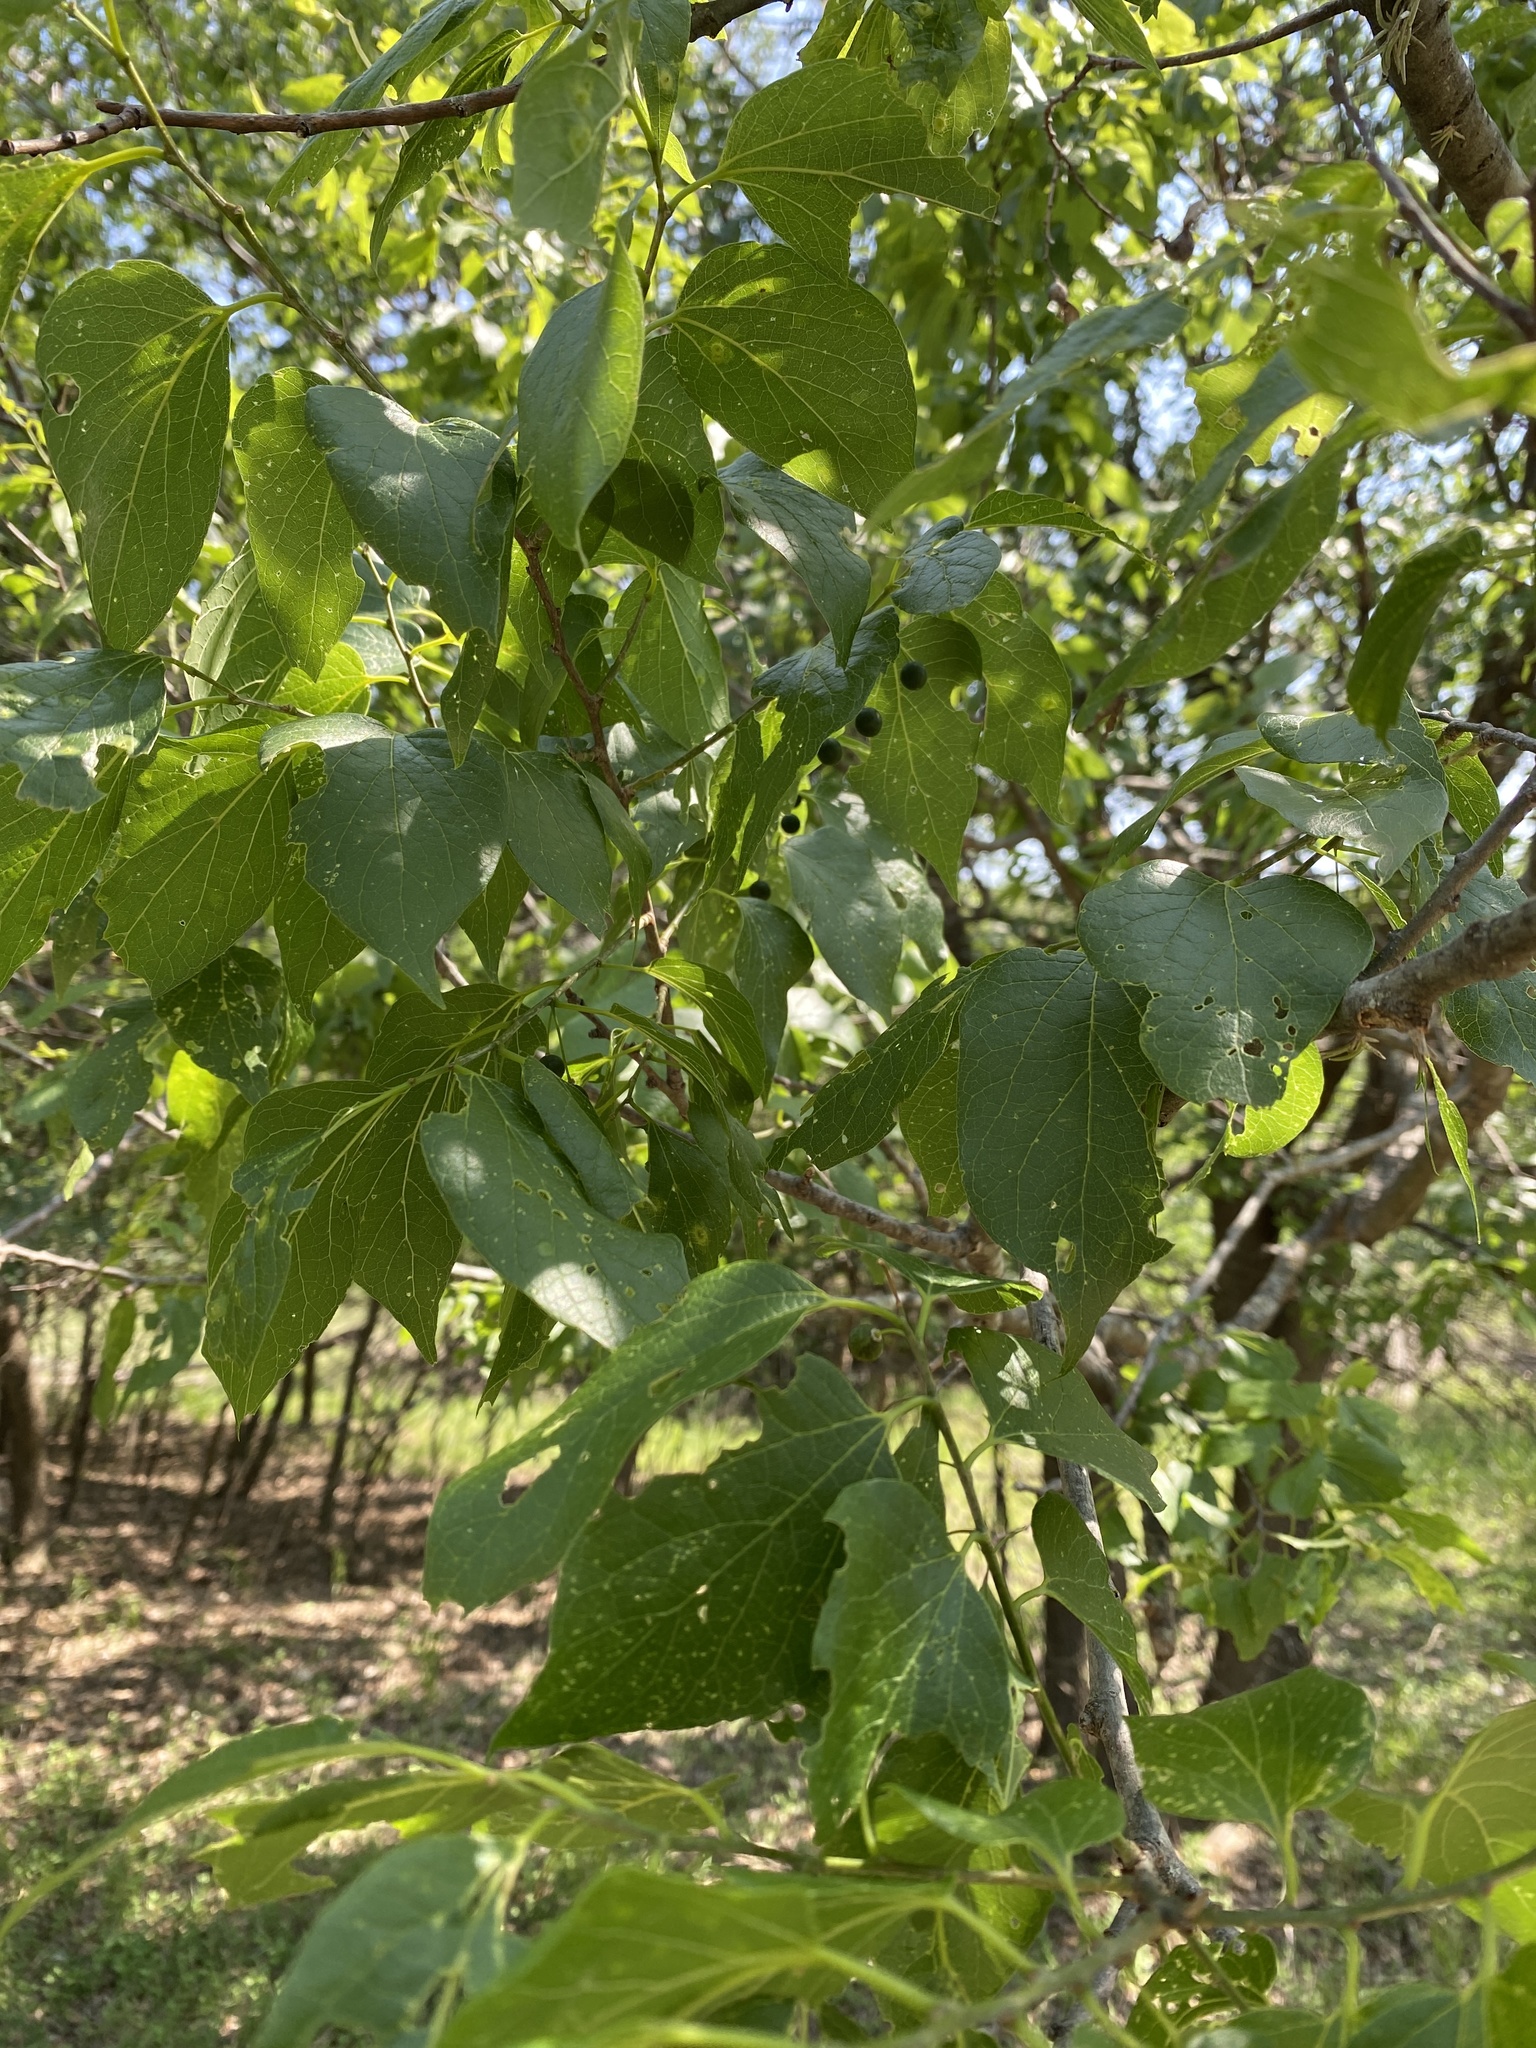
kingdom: Plantae
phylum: Tracheophyta
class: Magnoliopsida
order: Rosales
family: Cannabaceae
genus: Celtis
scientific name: Celtis laevigata
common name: Sugarberry
